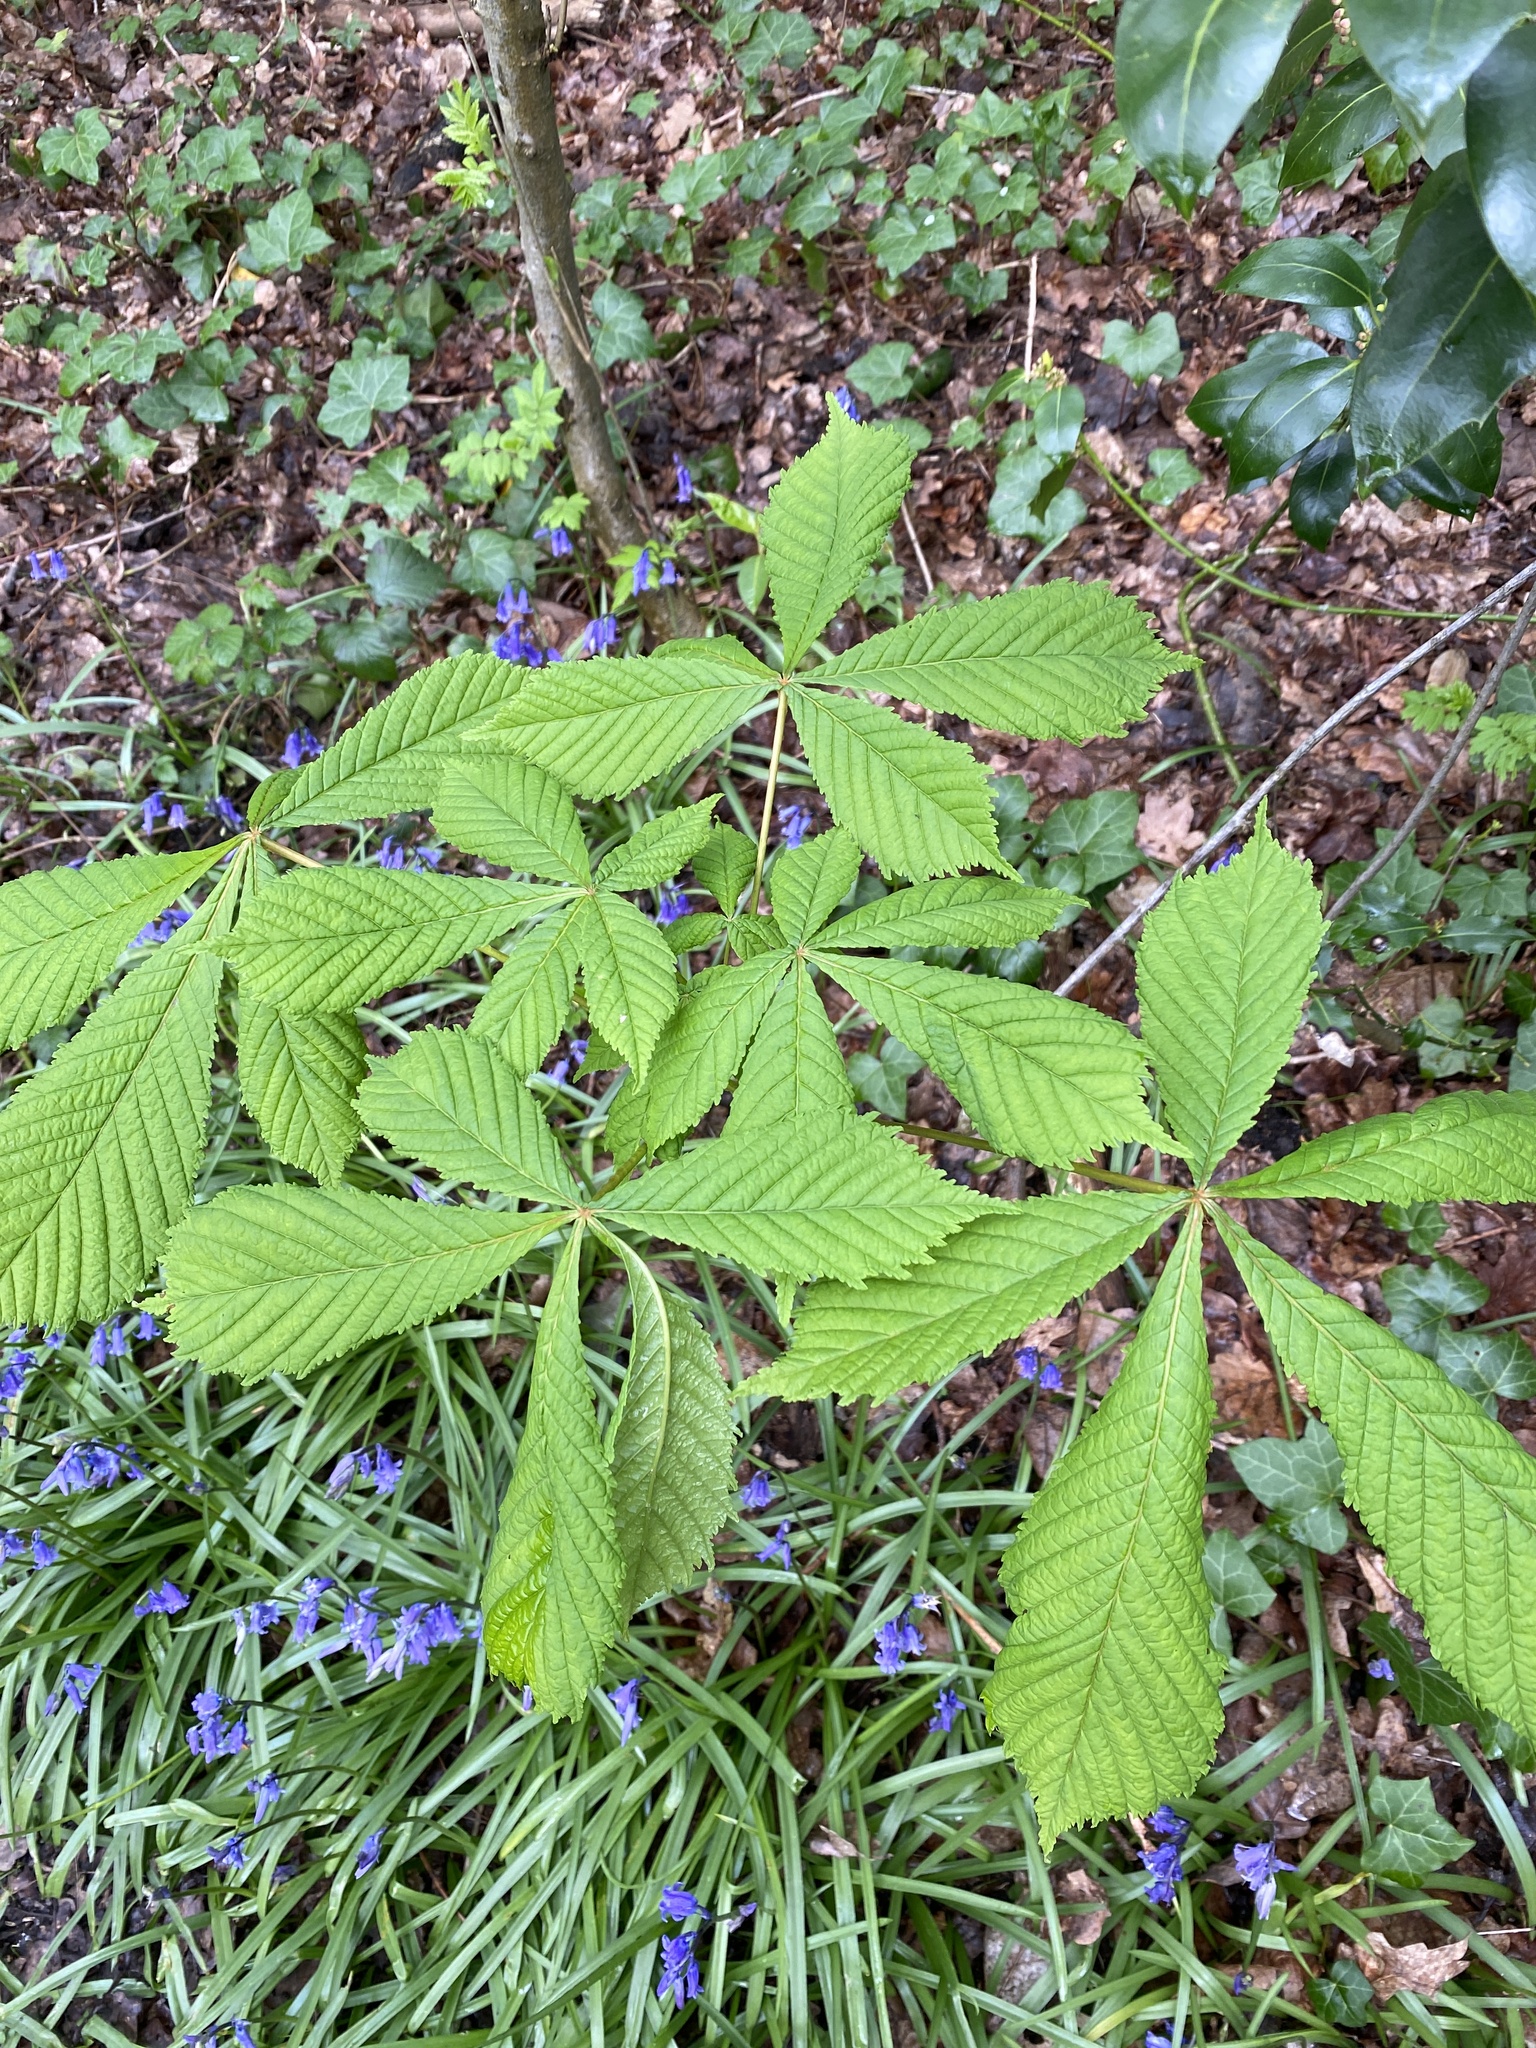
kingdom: Plantae
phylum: Tracheophyta
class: Magnoliopsida
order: Sapindales
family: Sapindaceae
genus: Aesculus
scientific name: Aesculus hippocastanum
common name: Horse-chestnut
